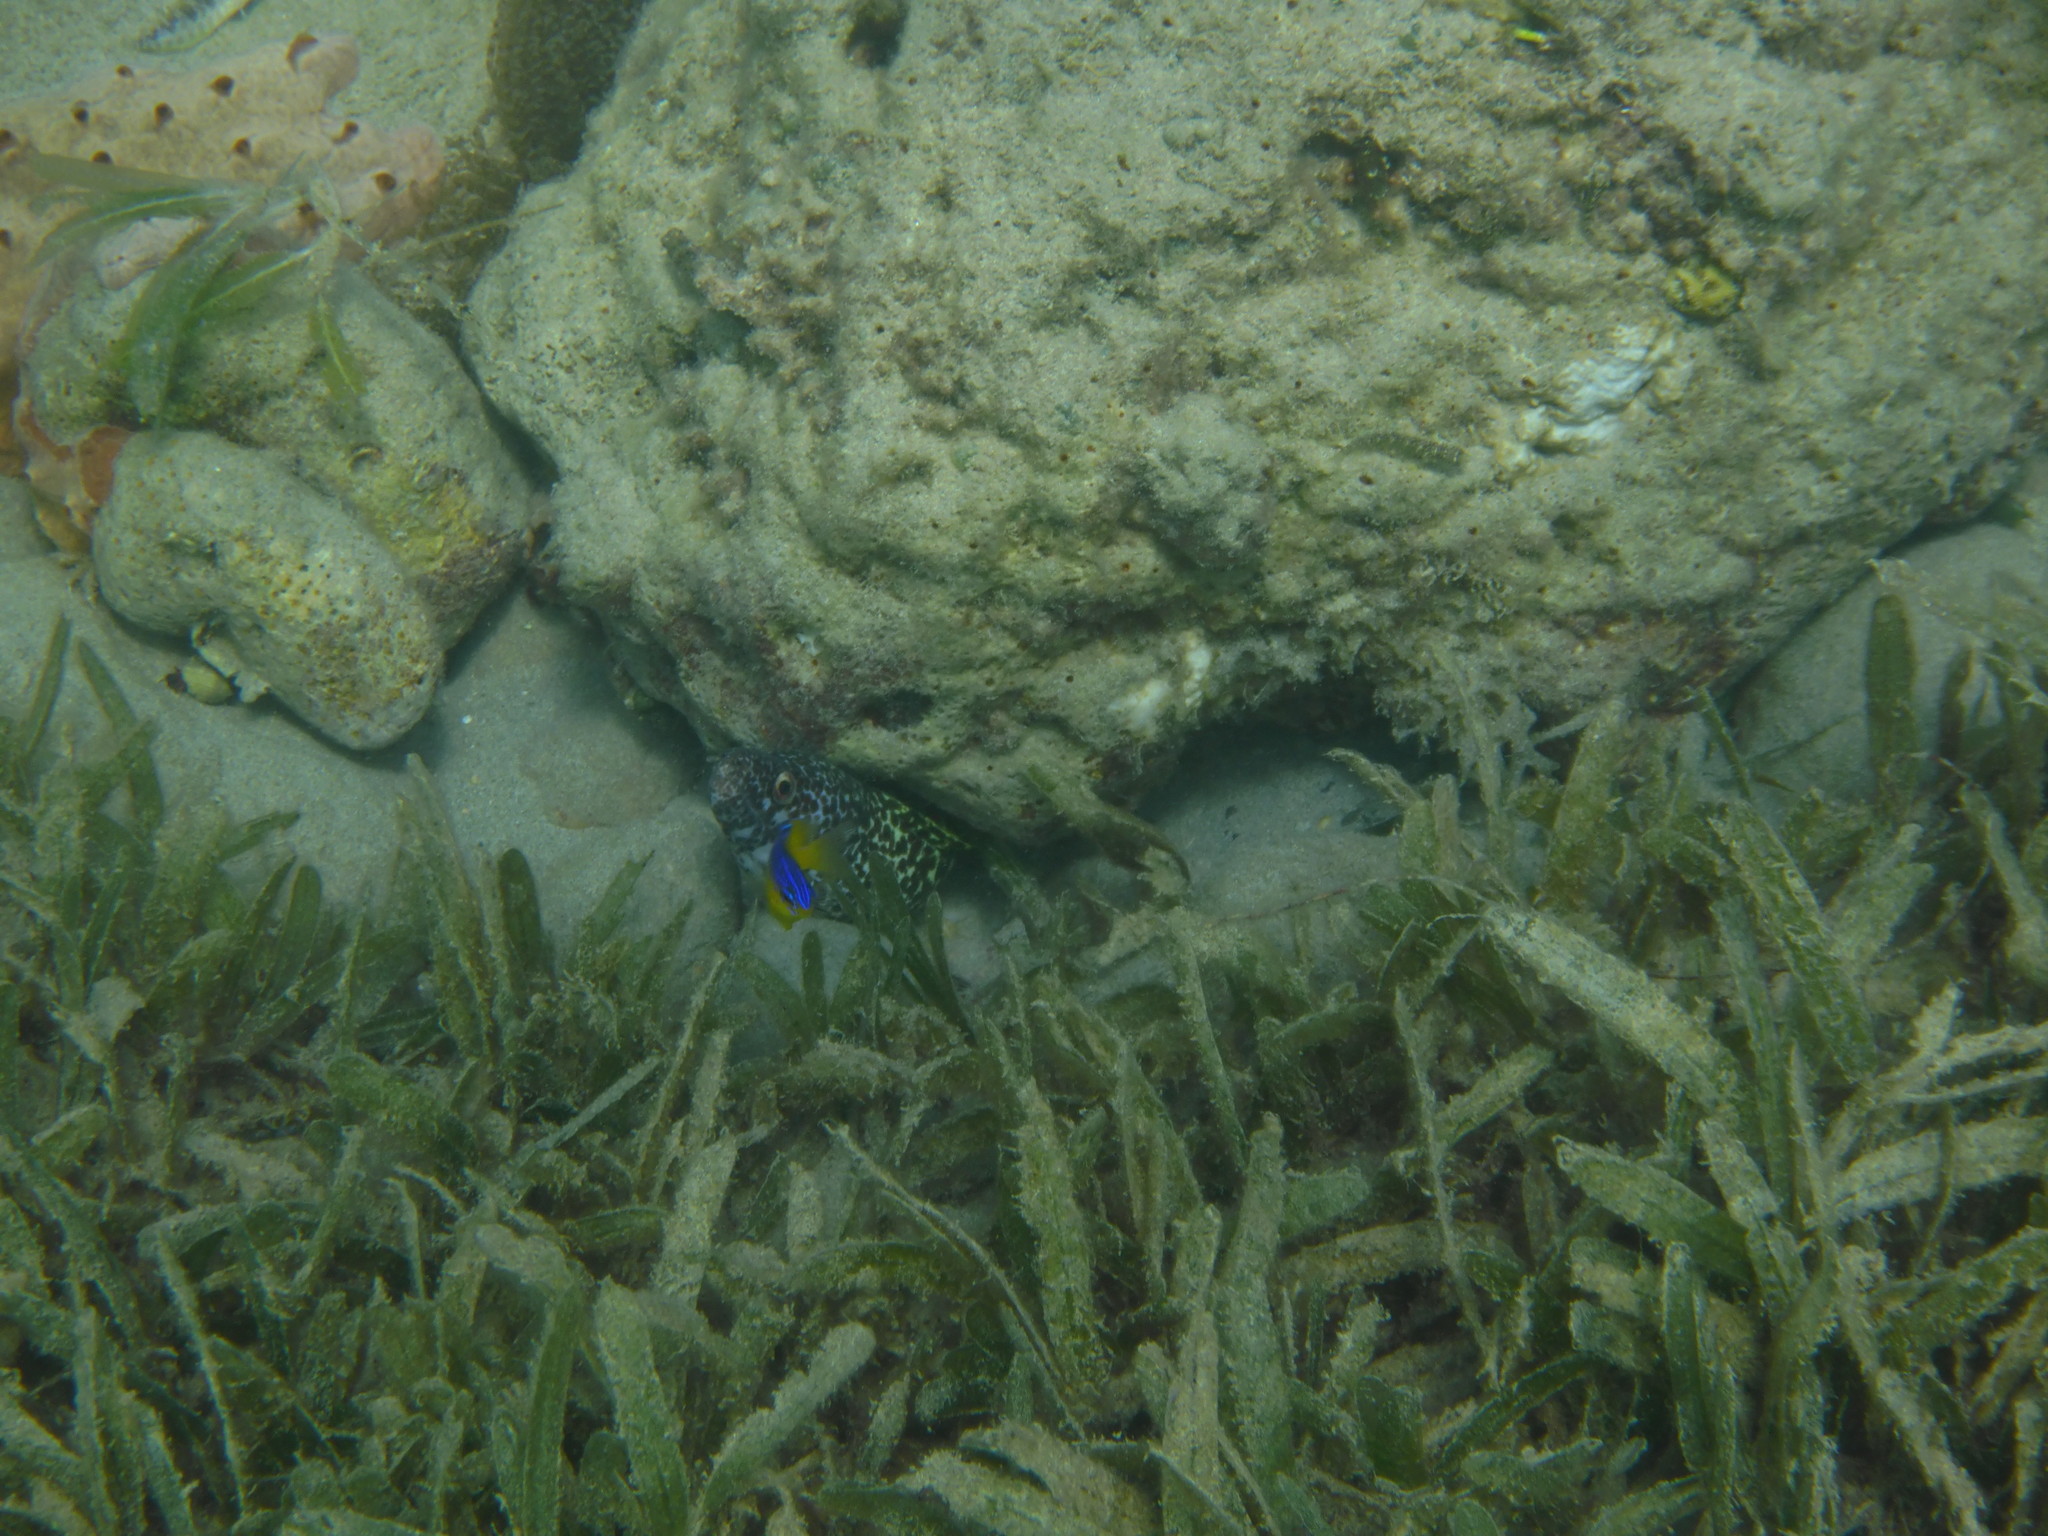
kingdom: Animalia
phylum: Chordata
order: Anguilliformes
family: Muraenidae
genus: Gymnothorax
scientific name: Gymnothorax moringa
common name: Spotted moray
